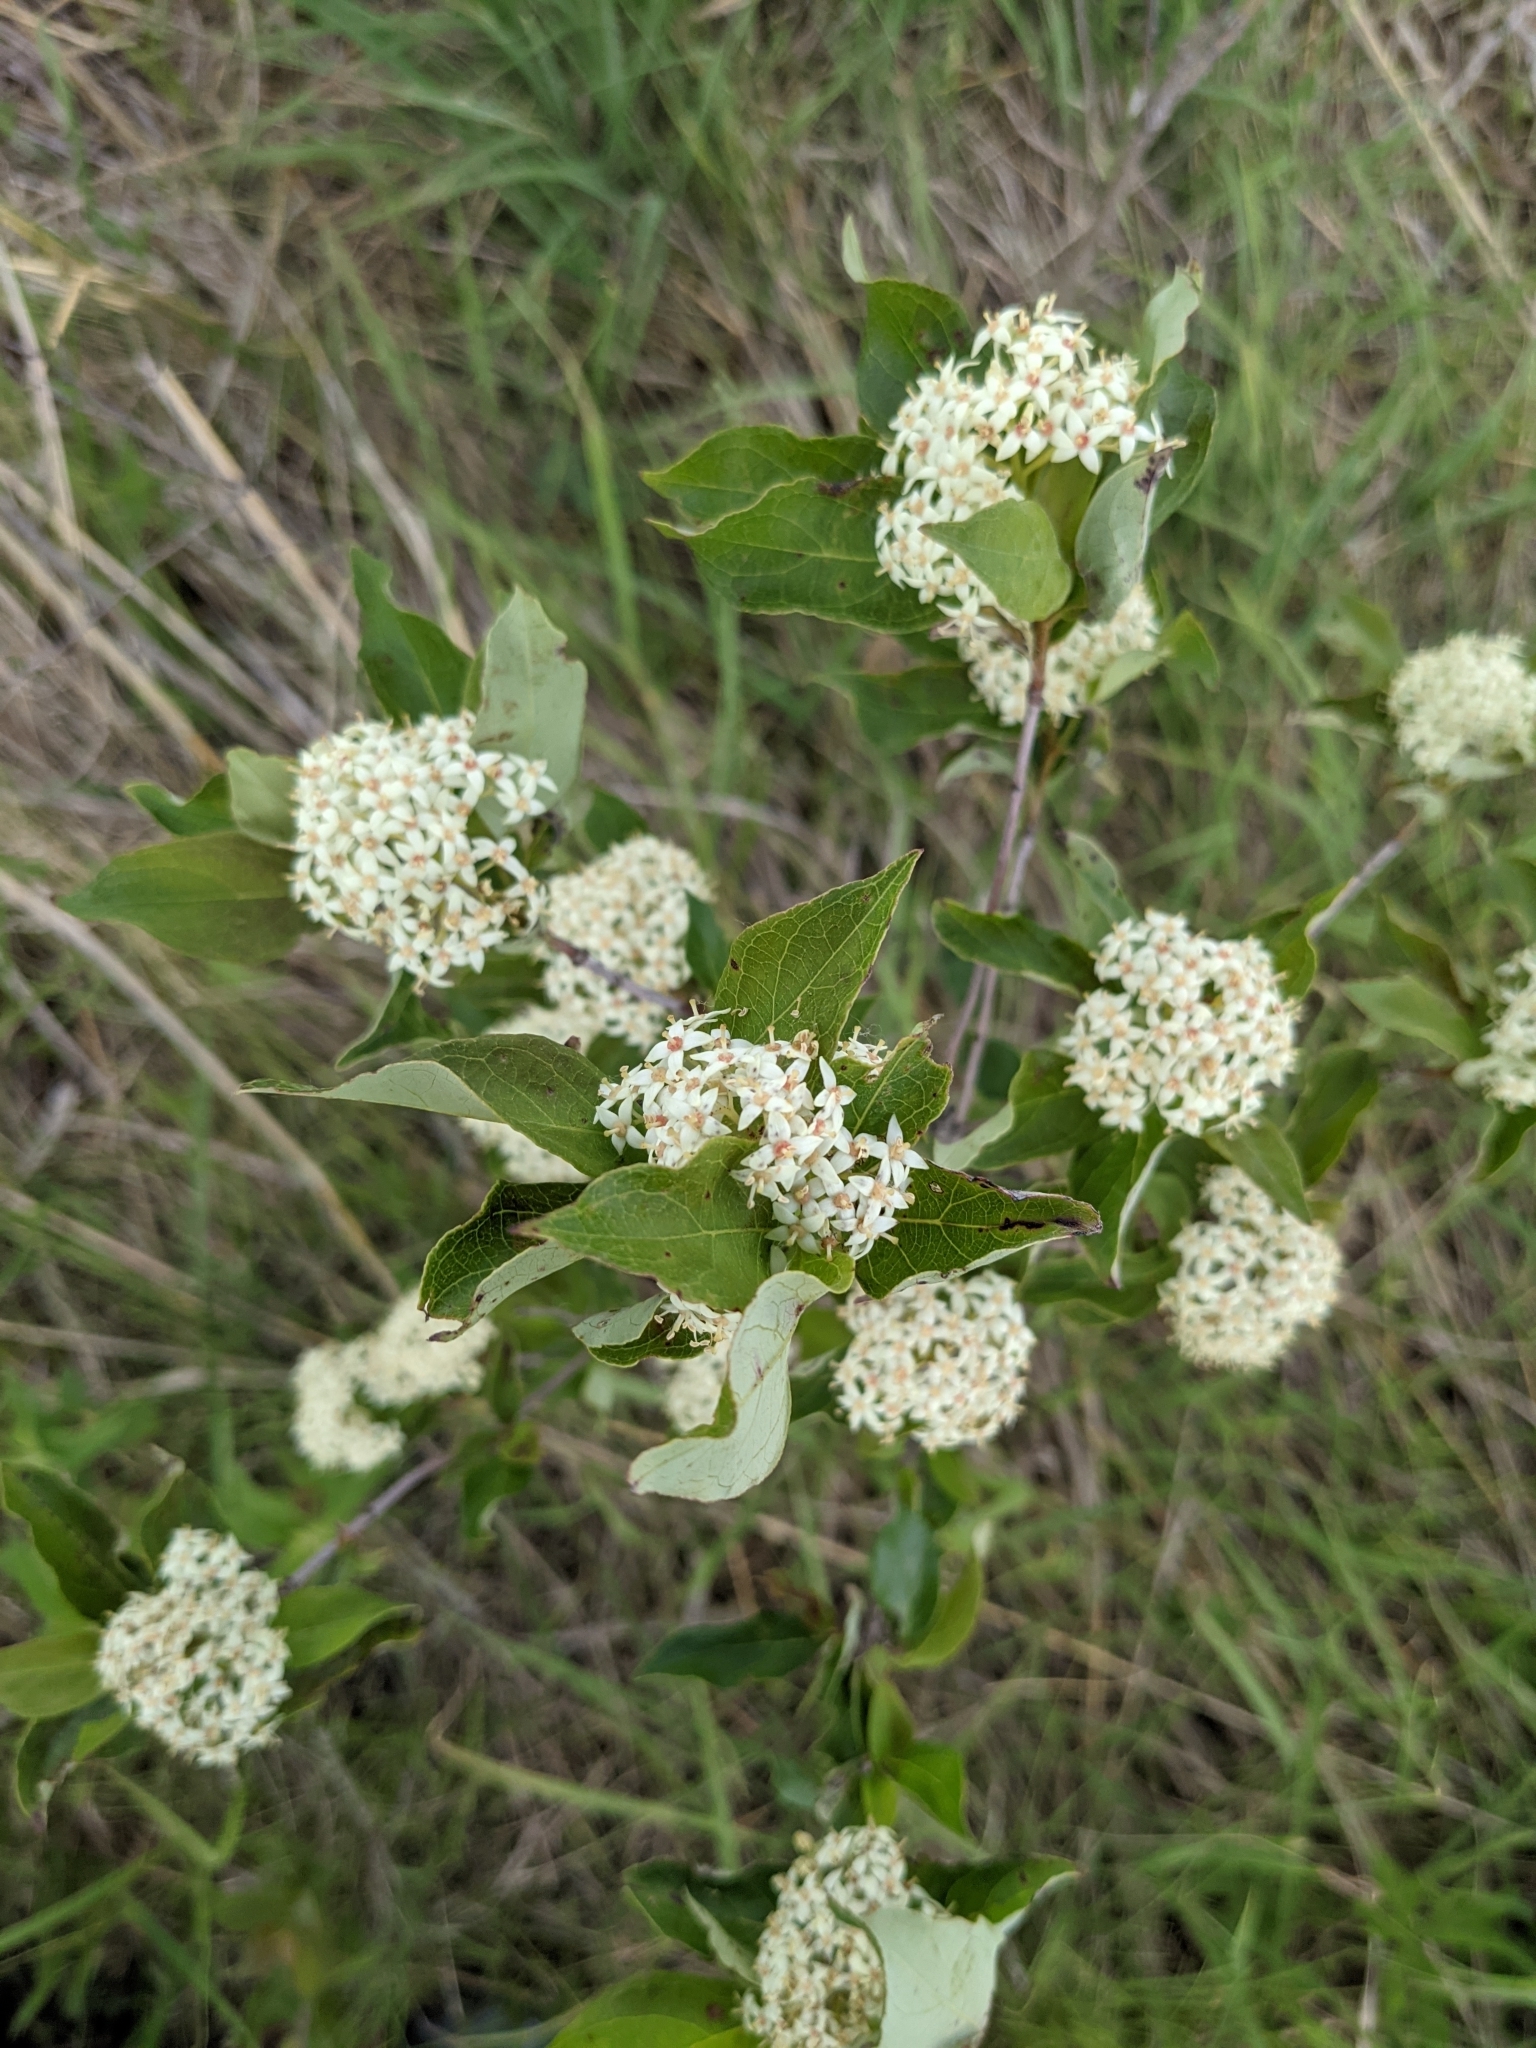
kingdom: Plantae
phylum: Tracheophyta
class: Magnoliopsida
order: Cornales
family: Cornaceae
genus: Cornus
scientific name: Cornus racemosa
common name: Panicled dogwood
